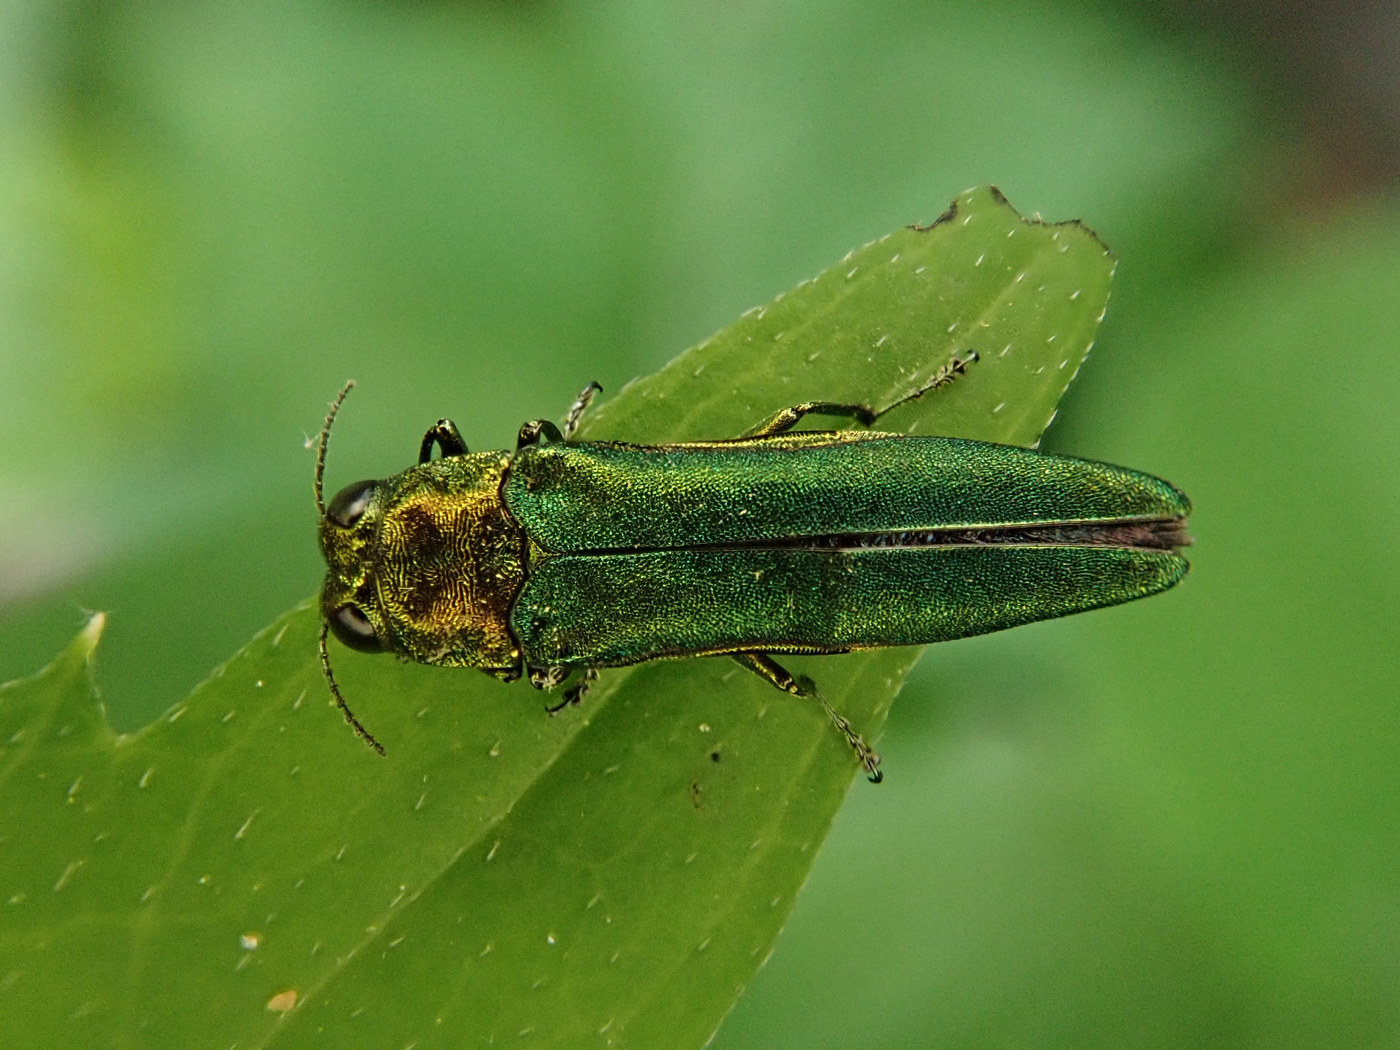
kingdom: Animalia
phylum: Arthropoda
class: Insecta
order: Coleoptera
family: Buprestidae
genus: Agrilus
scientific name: Agrilus planipennis
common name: Emerald ash borer
